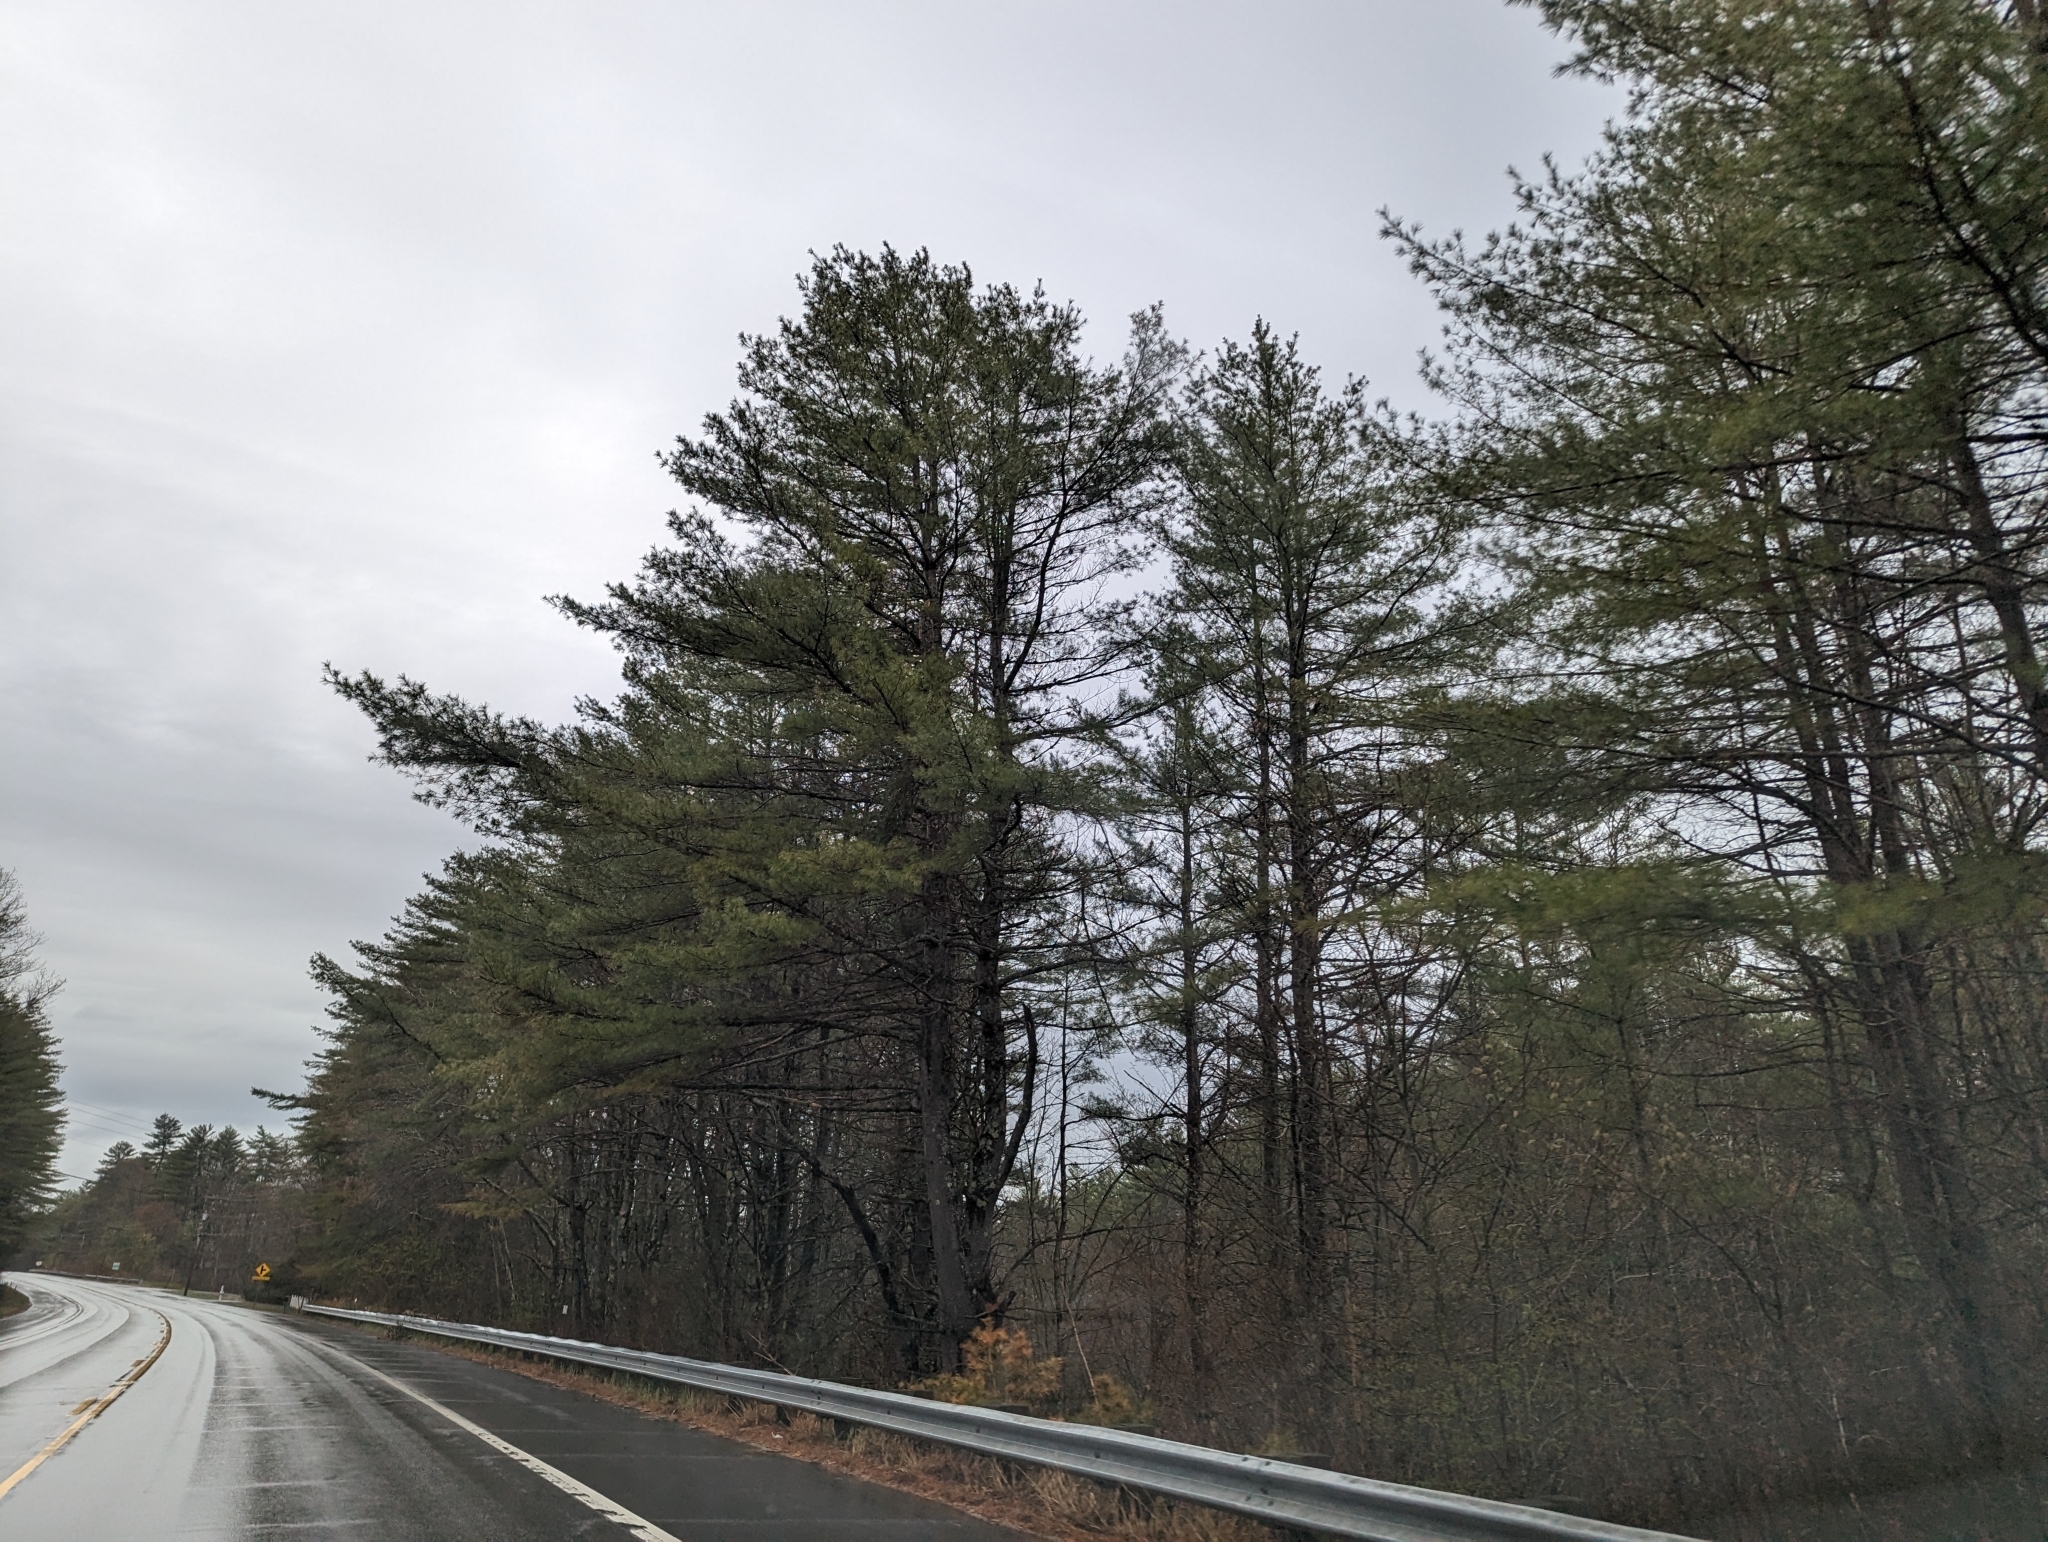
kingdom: Plantae
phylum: Tracheophyta
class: Pinopsida
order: Pinales
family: Pinaceae
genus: Pinus
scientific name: Pinus strobus
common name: Weymouth pine
